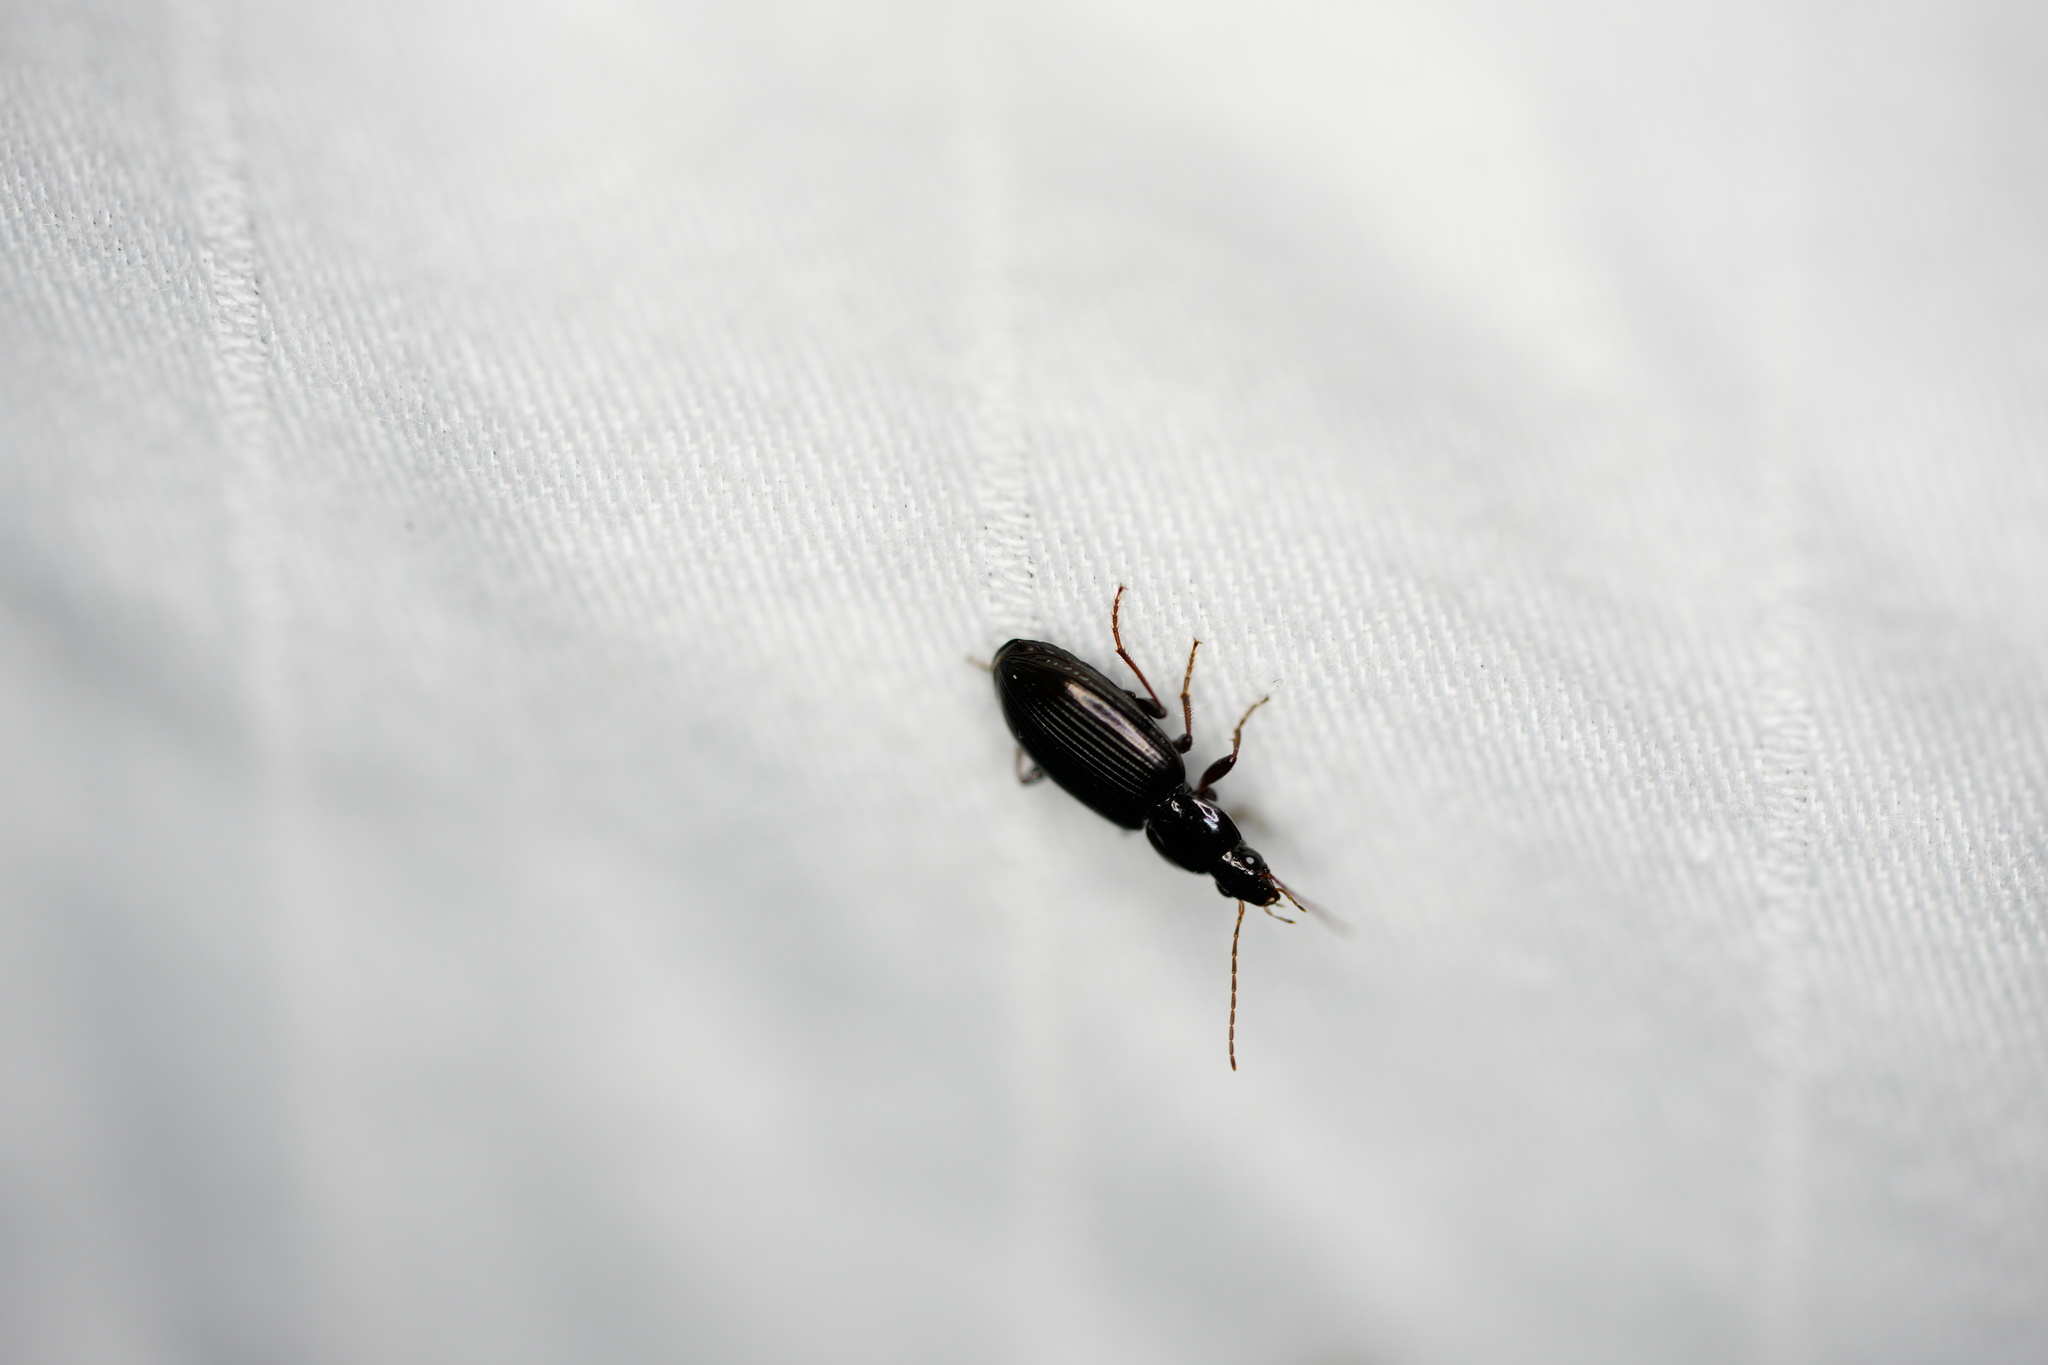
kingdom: Animalia
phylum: Arthropoda
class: Insecta
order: Coleoptera
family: Carabidae
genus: Agonum
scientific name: Agonum punctiforme
